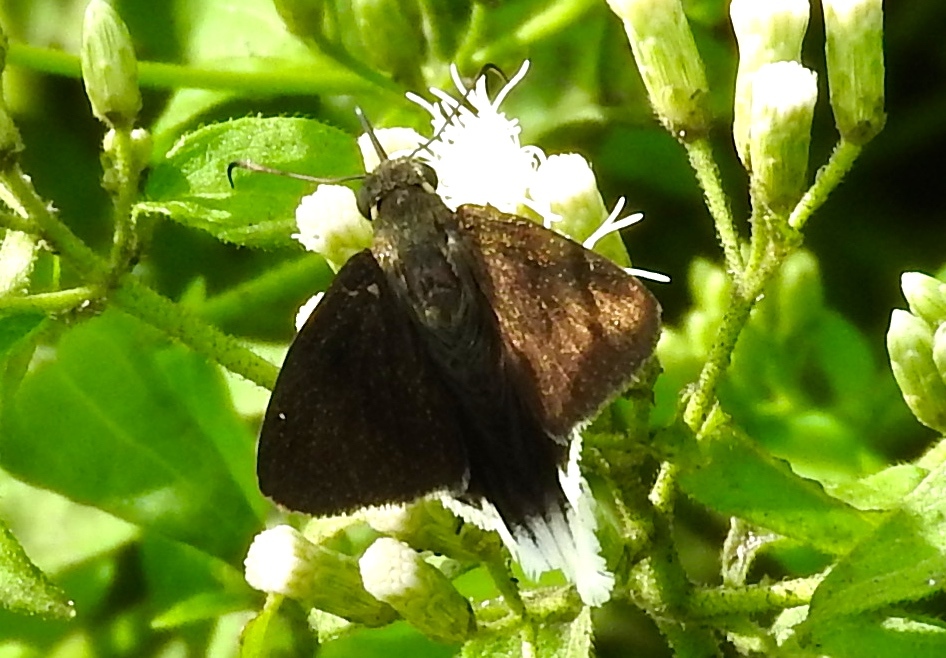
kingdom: Animalia
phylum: Arthropoda
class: Insecta
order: Lepidoptera
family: Hesperiidae
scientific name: Hesperiidae
